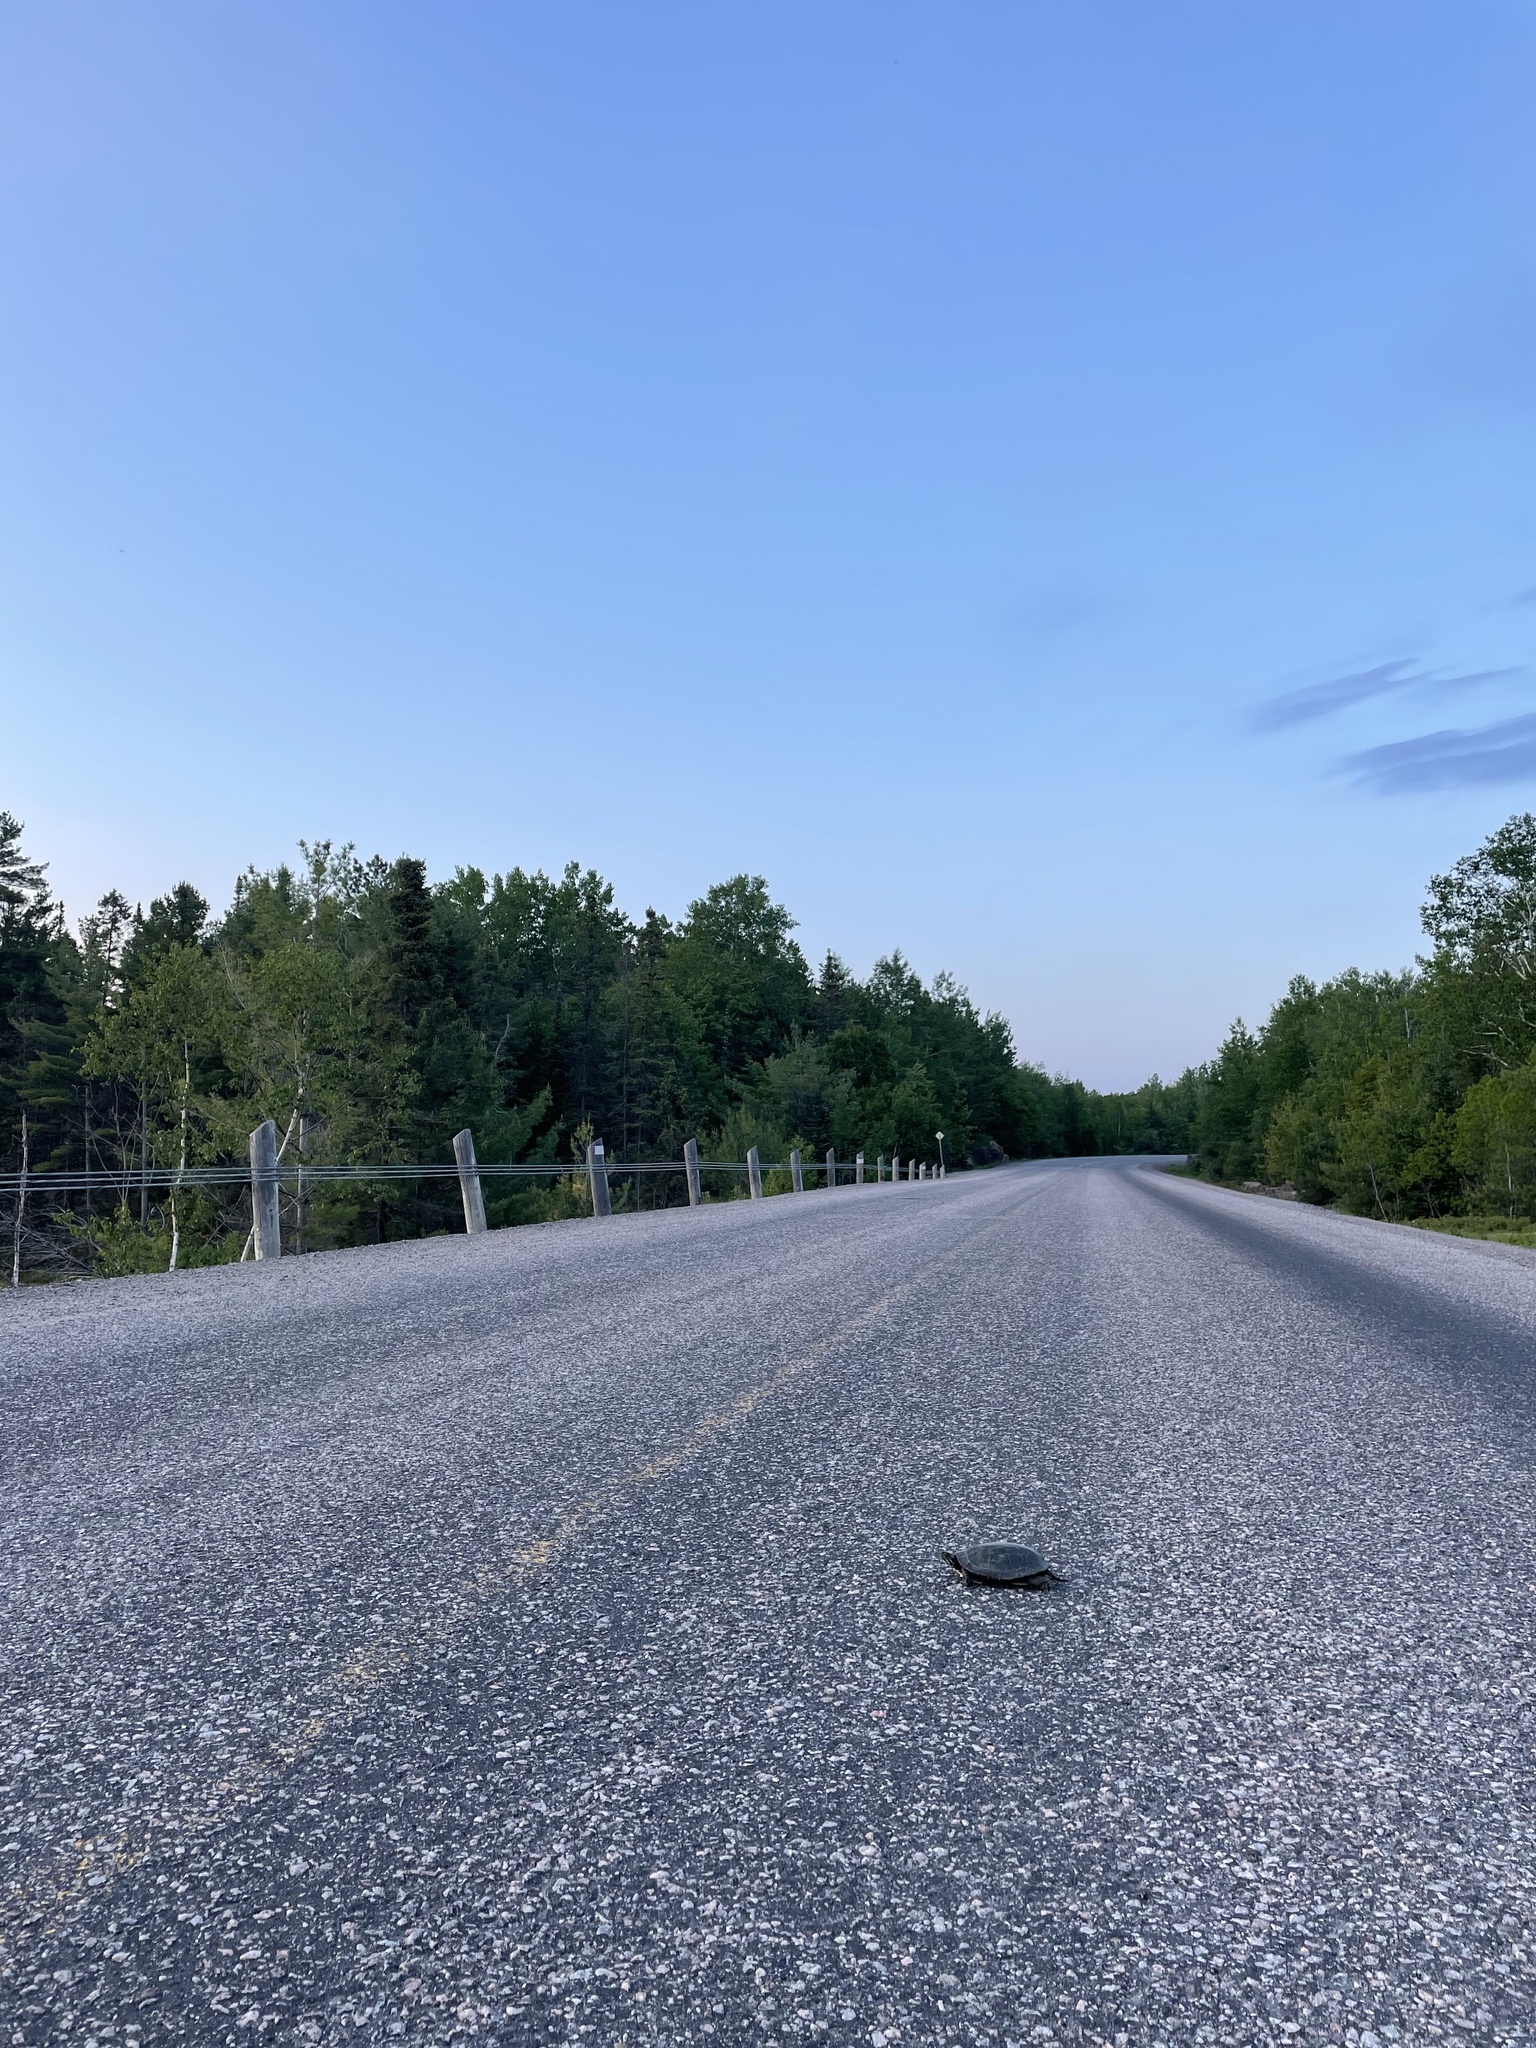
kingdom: Animalia
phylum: Chordata
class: Testudines
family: Emydidae
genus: Chrysemys
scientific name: Chrysemys picta
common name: Painted turtle
